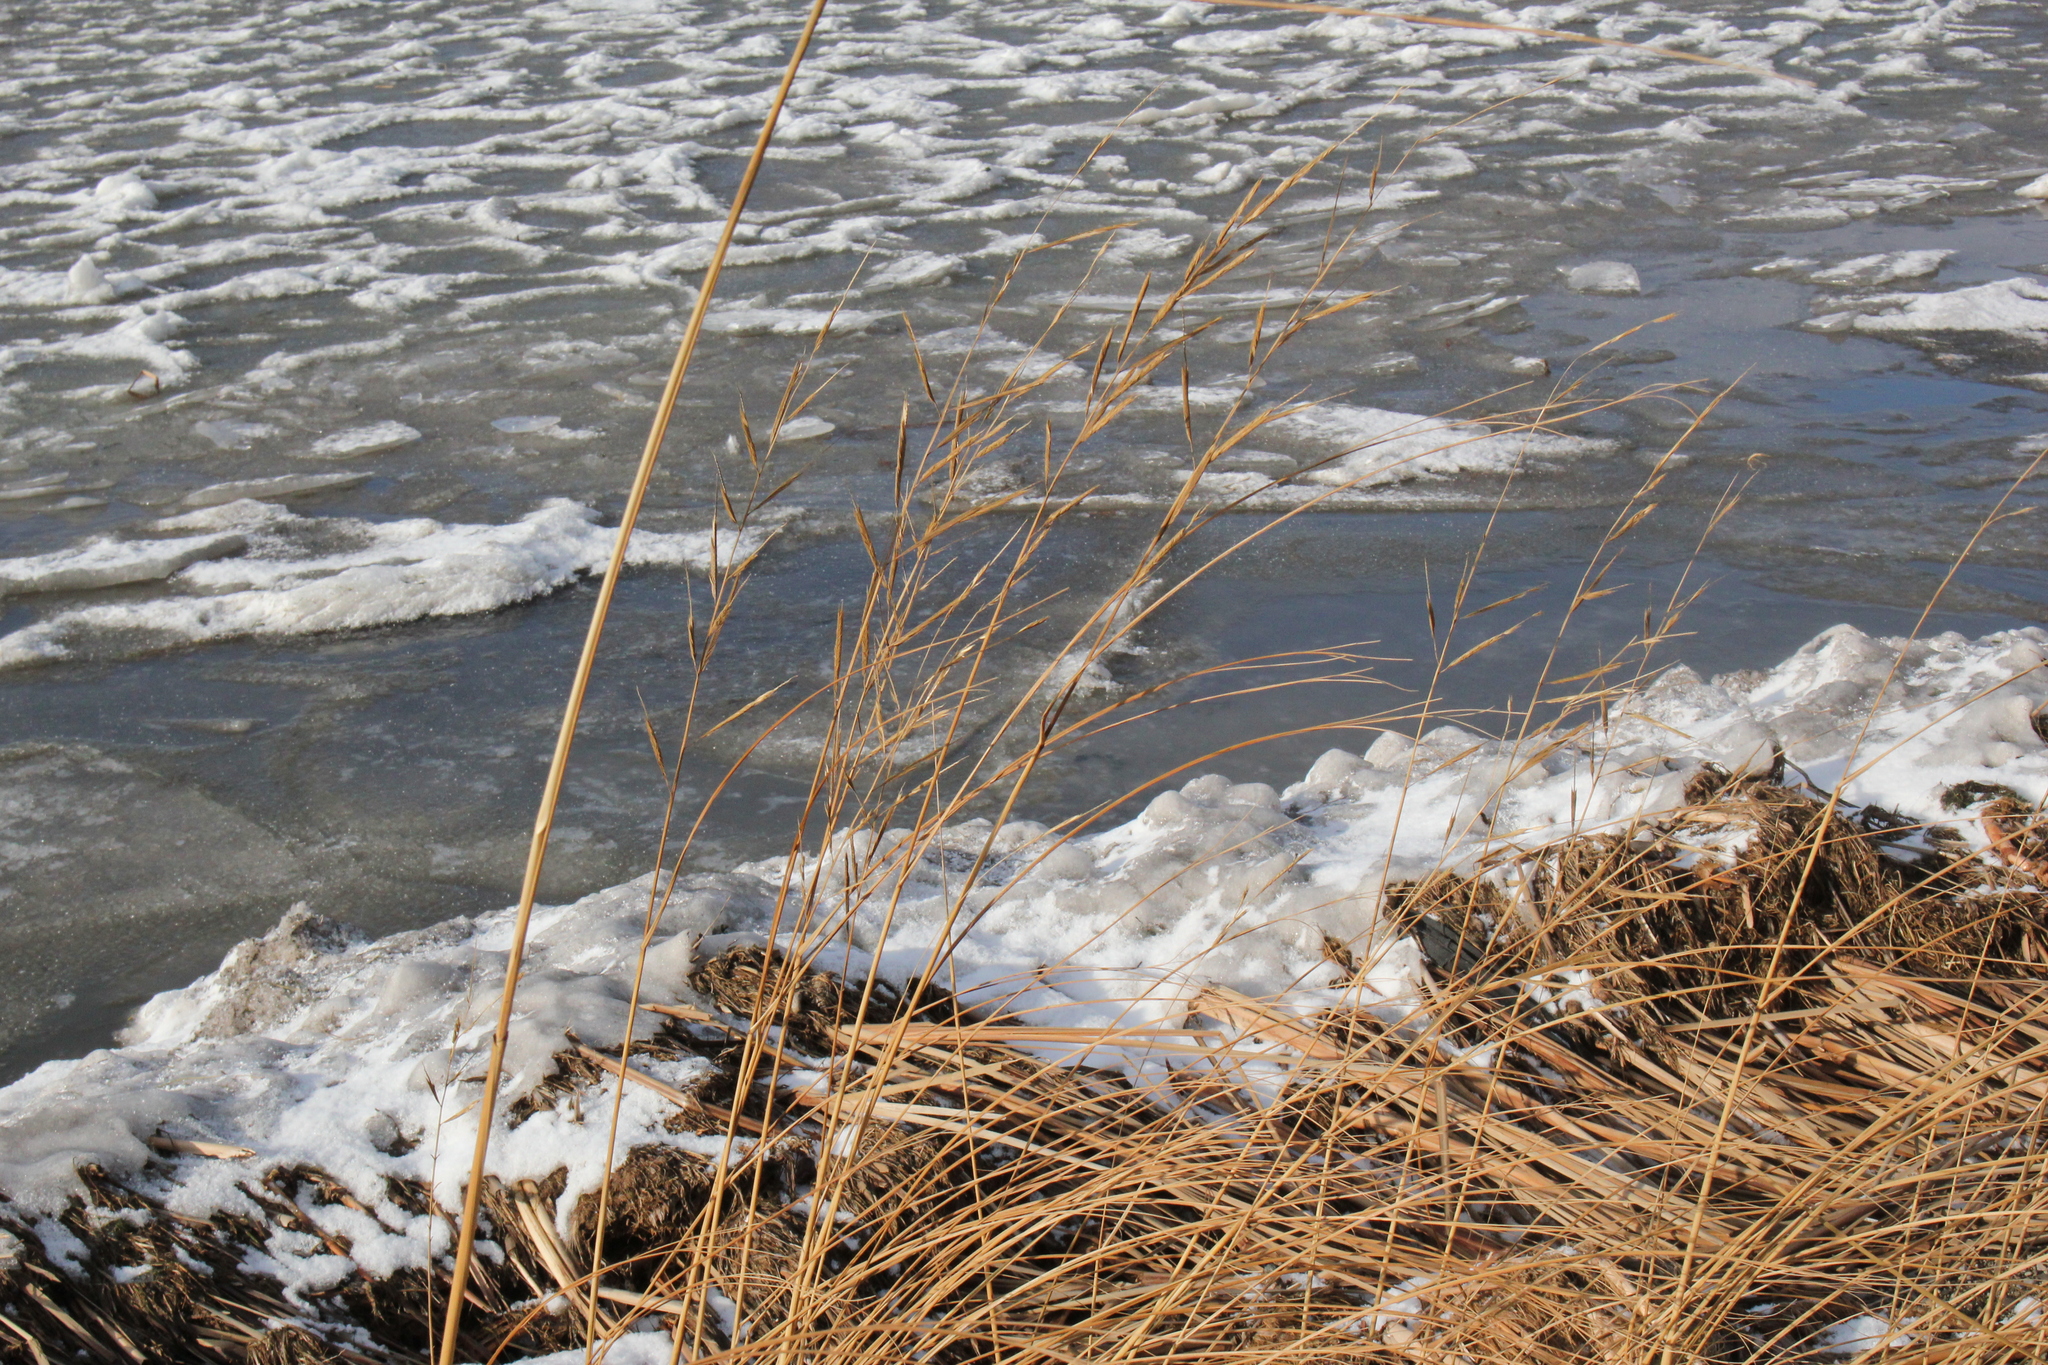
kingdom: Plantae
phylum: Tracheophyta
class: Liliopsida
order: Poales
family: Poaceae
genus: Sporobolus
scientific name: Sporobolus michauxianus
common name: Freshwater cordgrass
